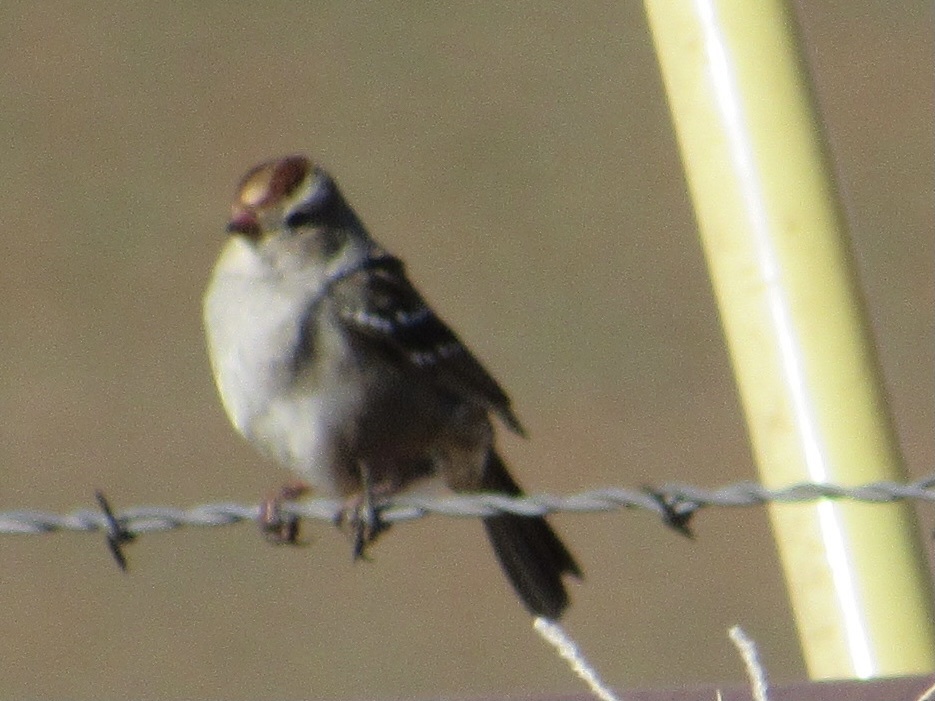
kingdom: Animalia
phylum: Chordata
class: Aves
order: Passeriformes
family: Passerellidae
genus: Zonotrichia
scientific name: Zonotrichia leucophrys
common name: White-crowned sparrow
